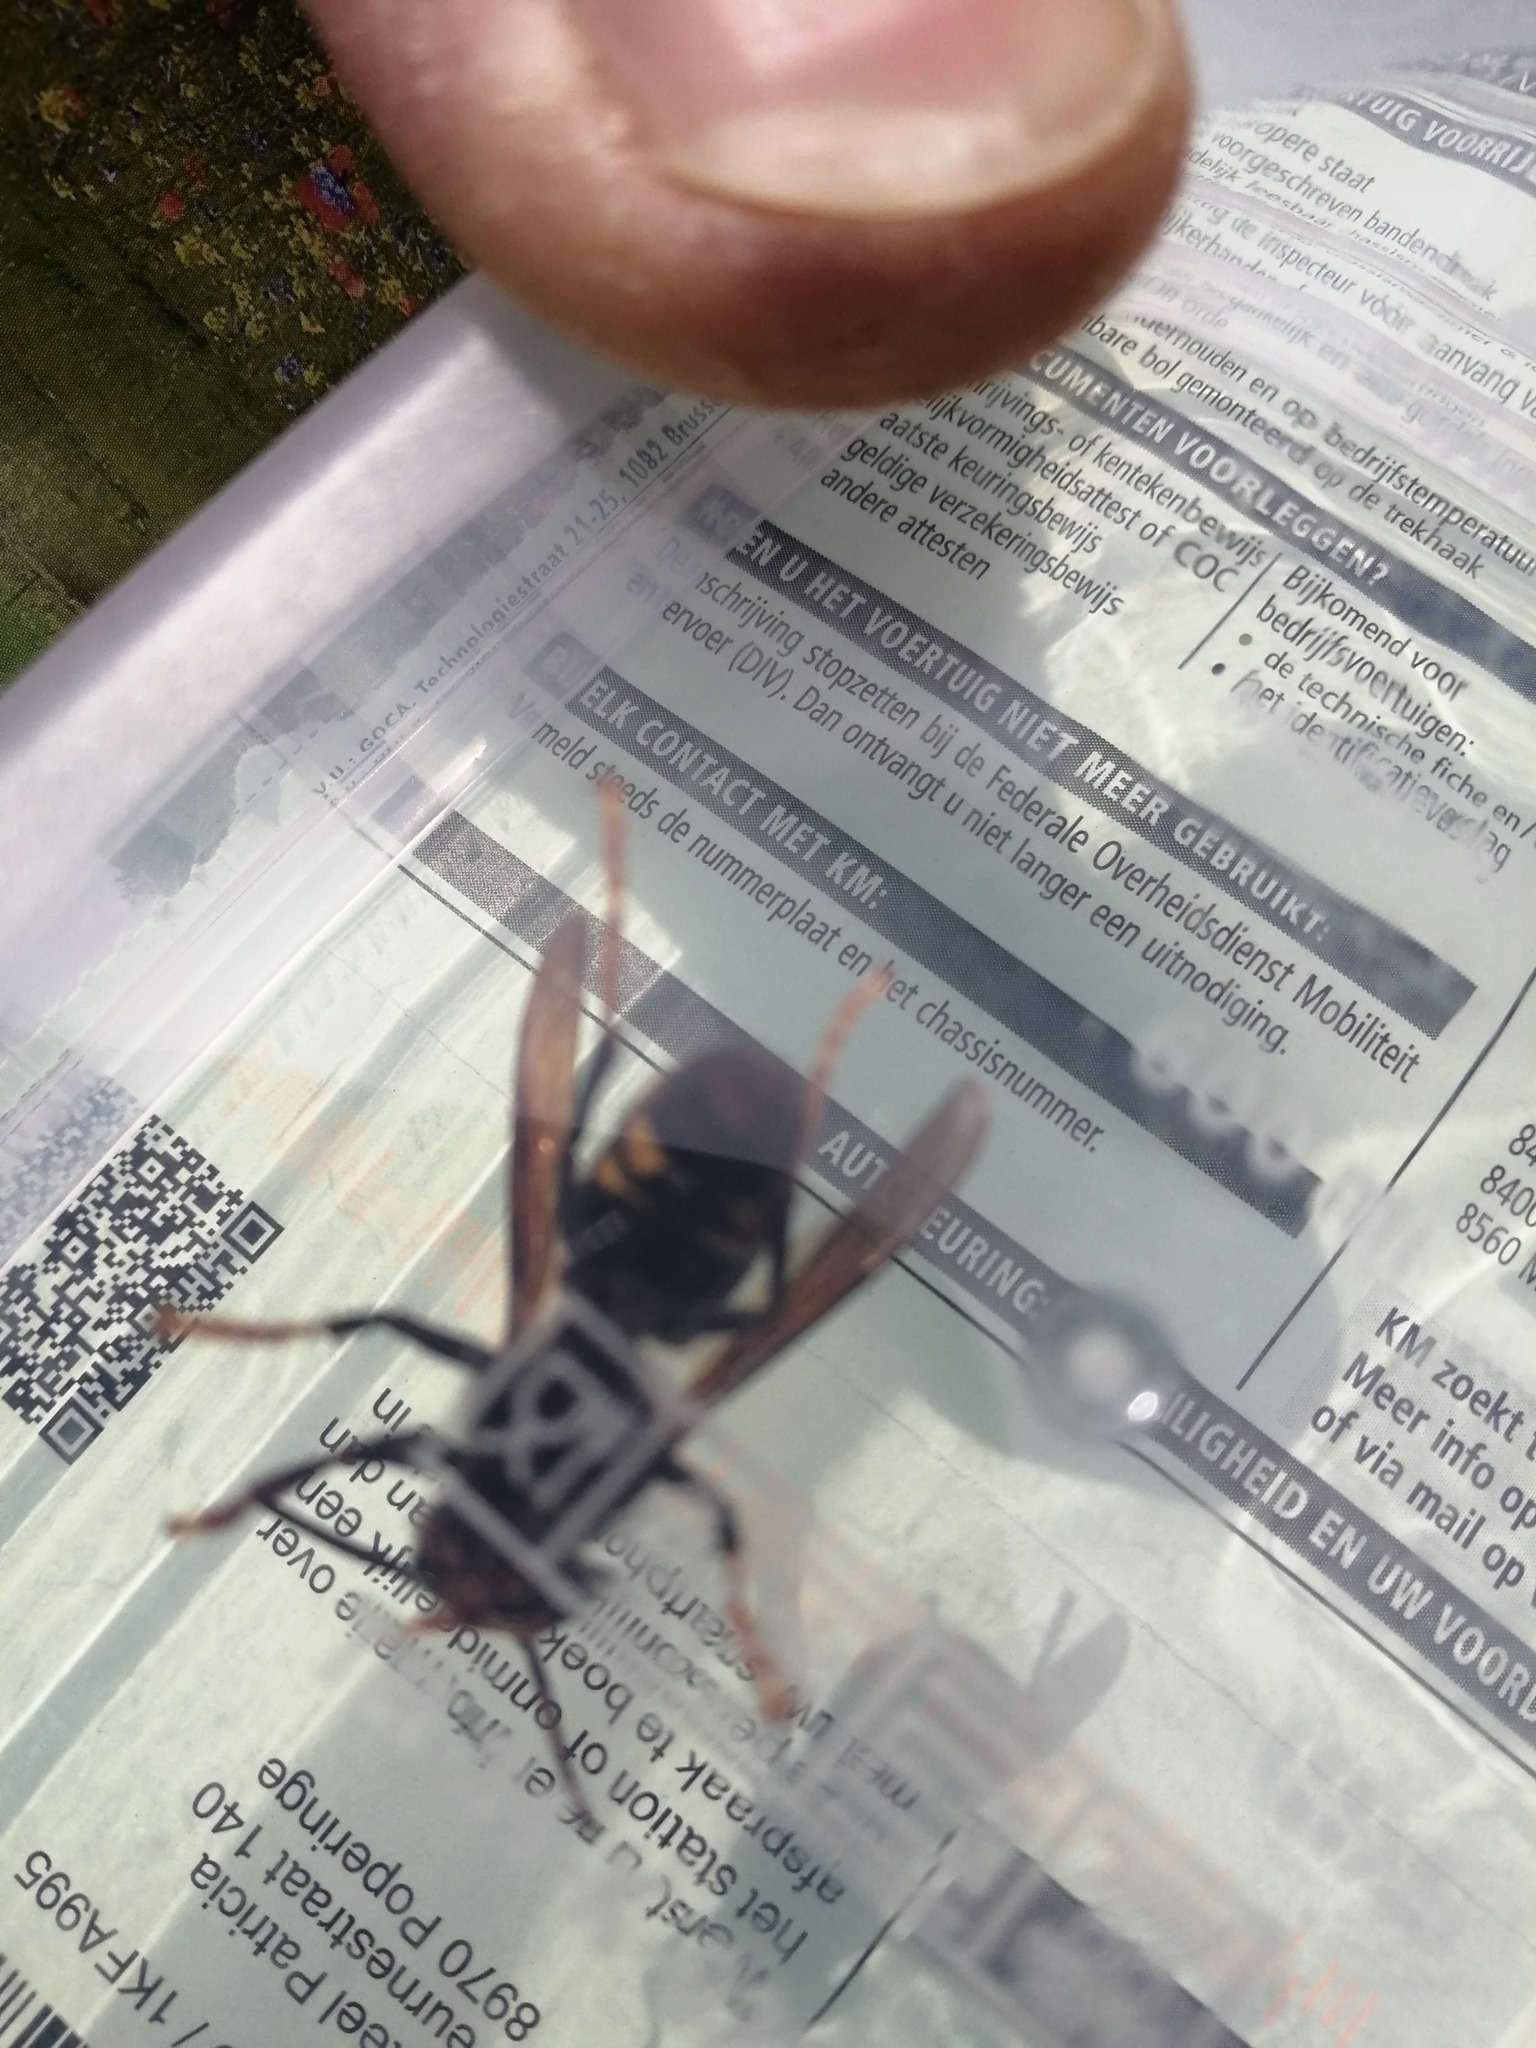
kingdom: Animalia
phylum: Arthropoda
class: Insecta
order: Hymenoptera
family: Vespidae
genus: Vespa
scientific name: Vespa velutina
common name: Asian hornet
